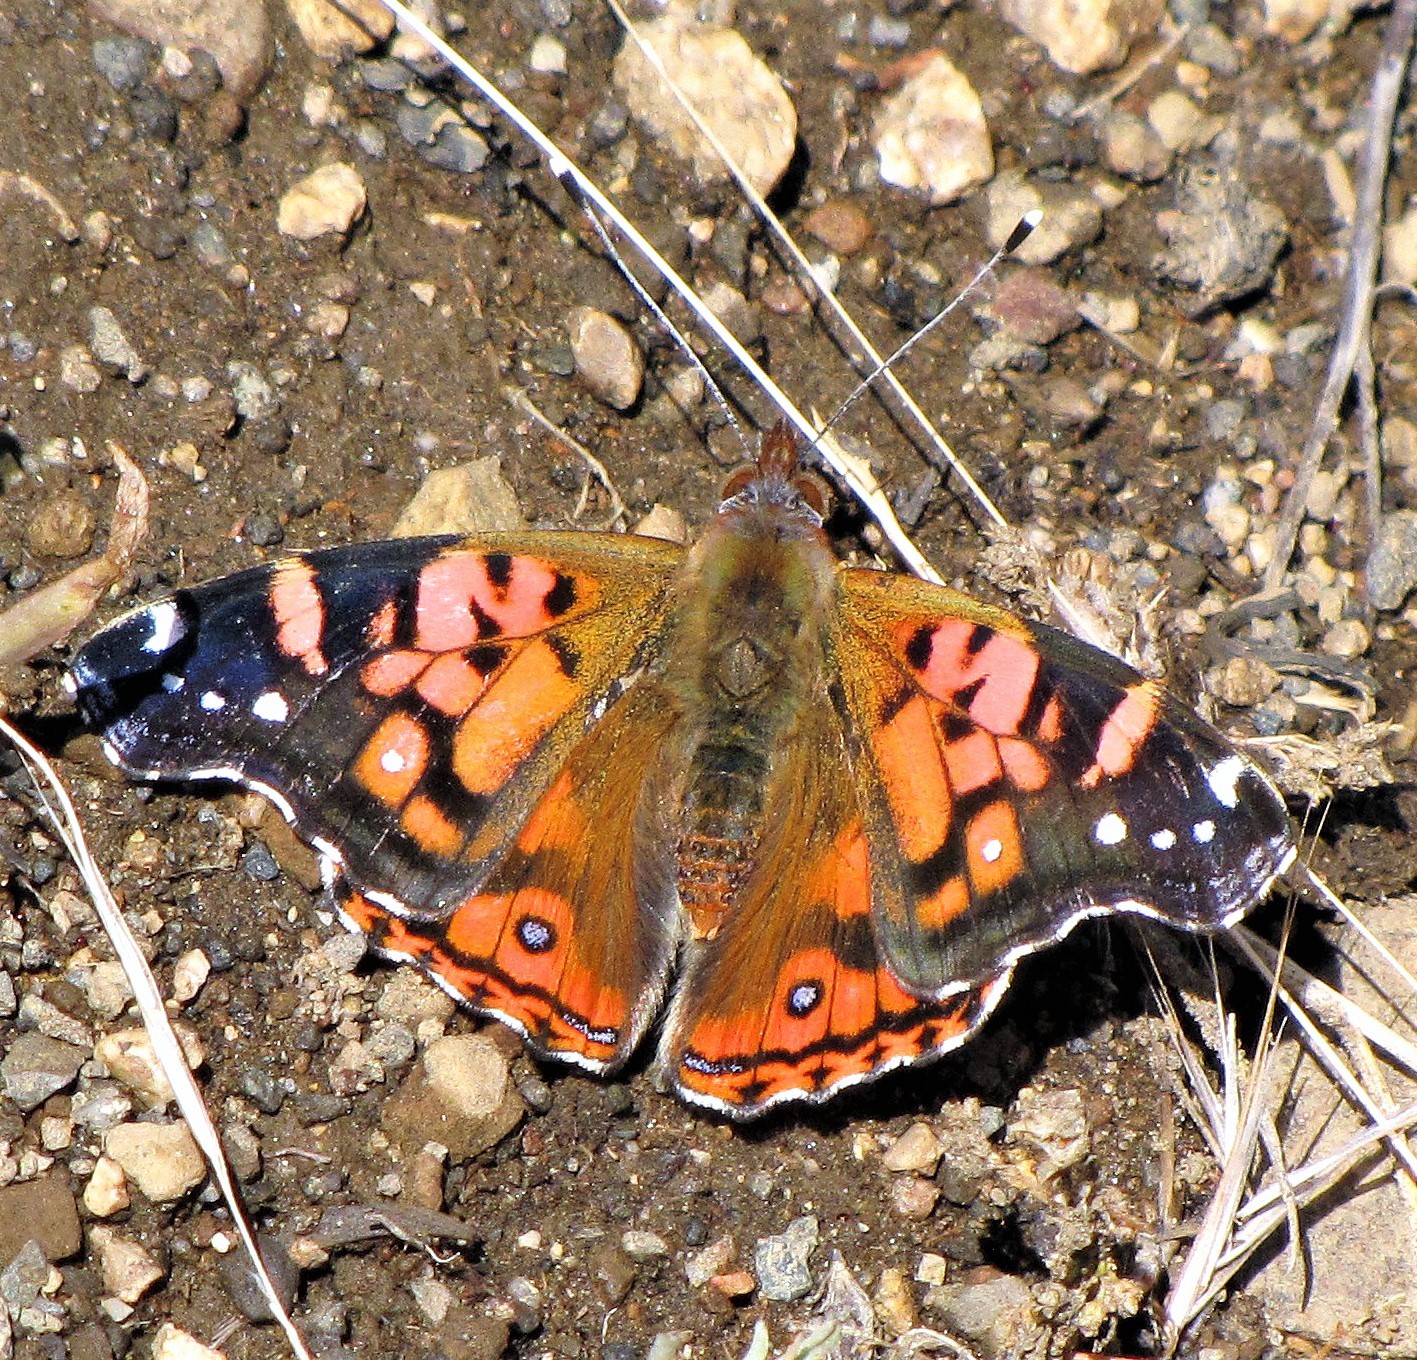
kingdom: Animalia
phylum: Arthropoda
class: Insecta
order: Lepidoptera
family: Nymphalidae
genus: Vanessa
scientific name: Vanessa terpsichore
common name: Chilean lady
